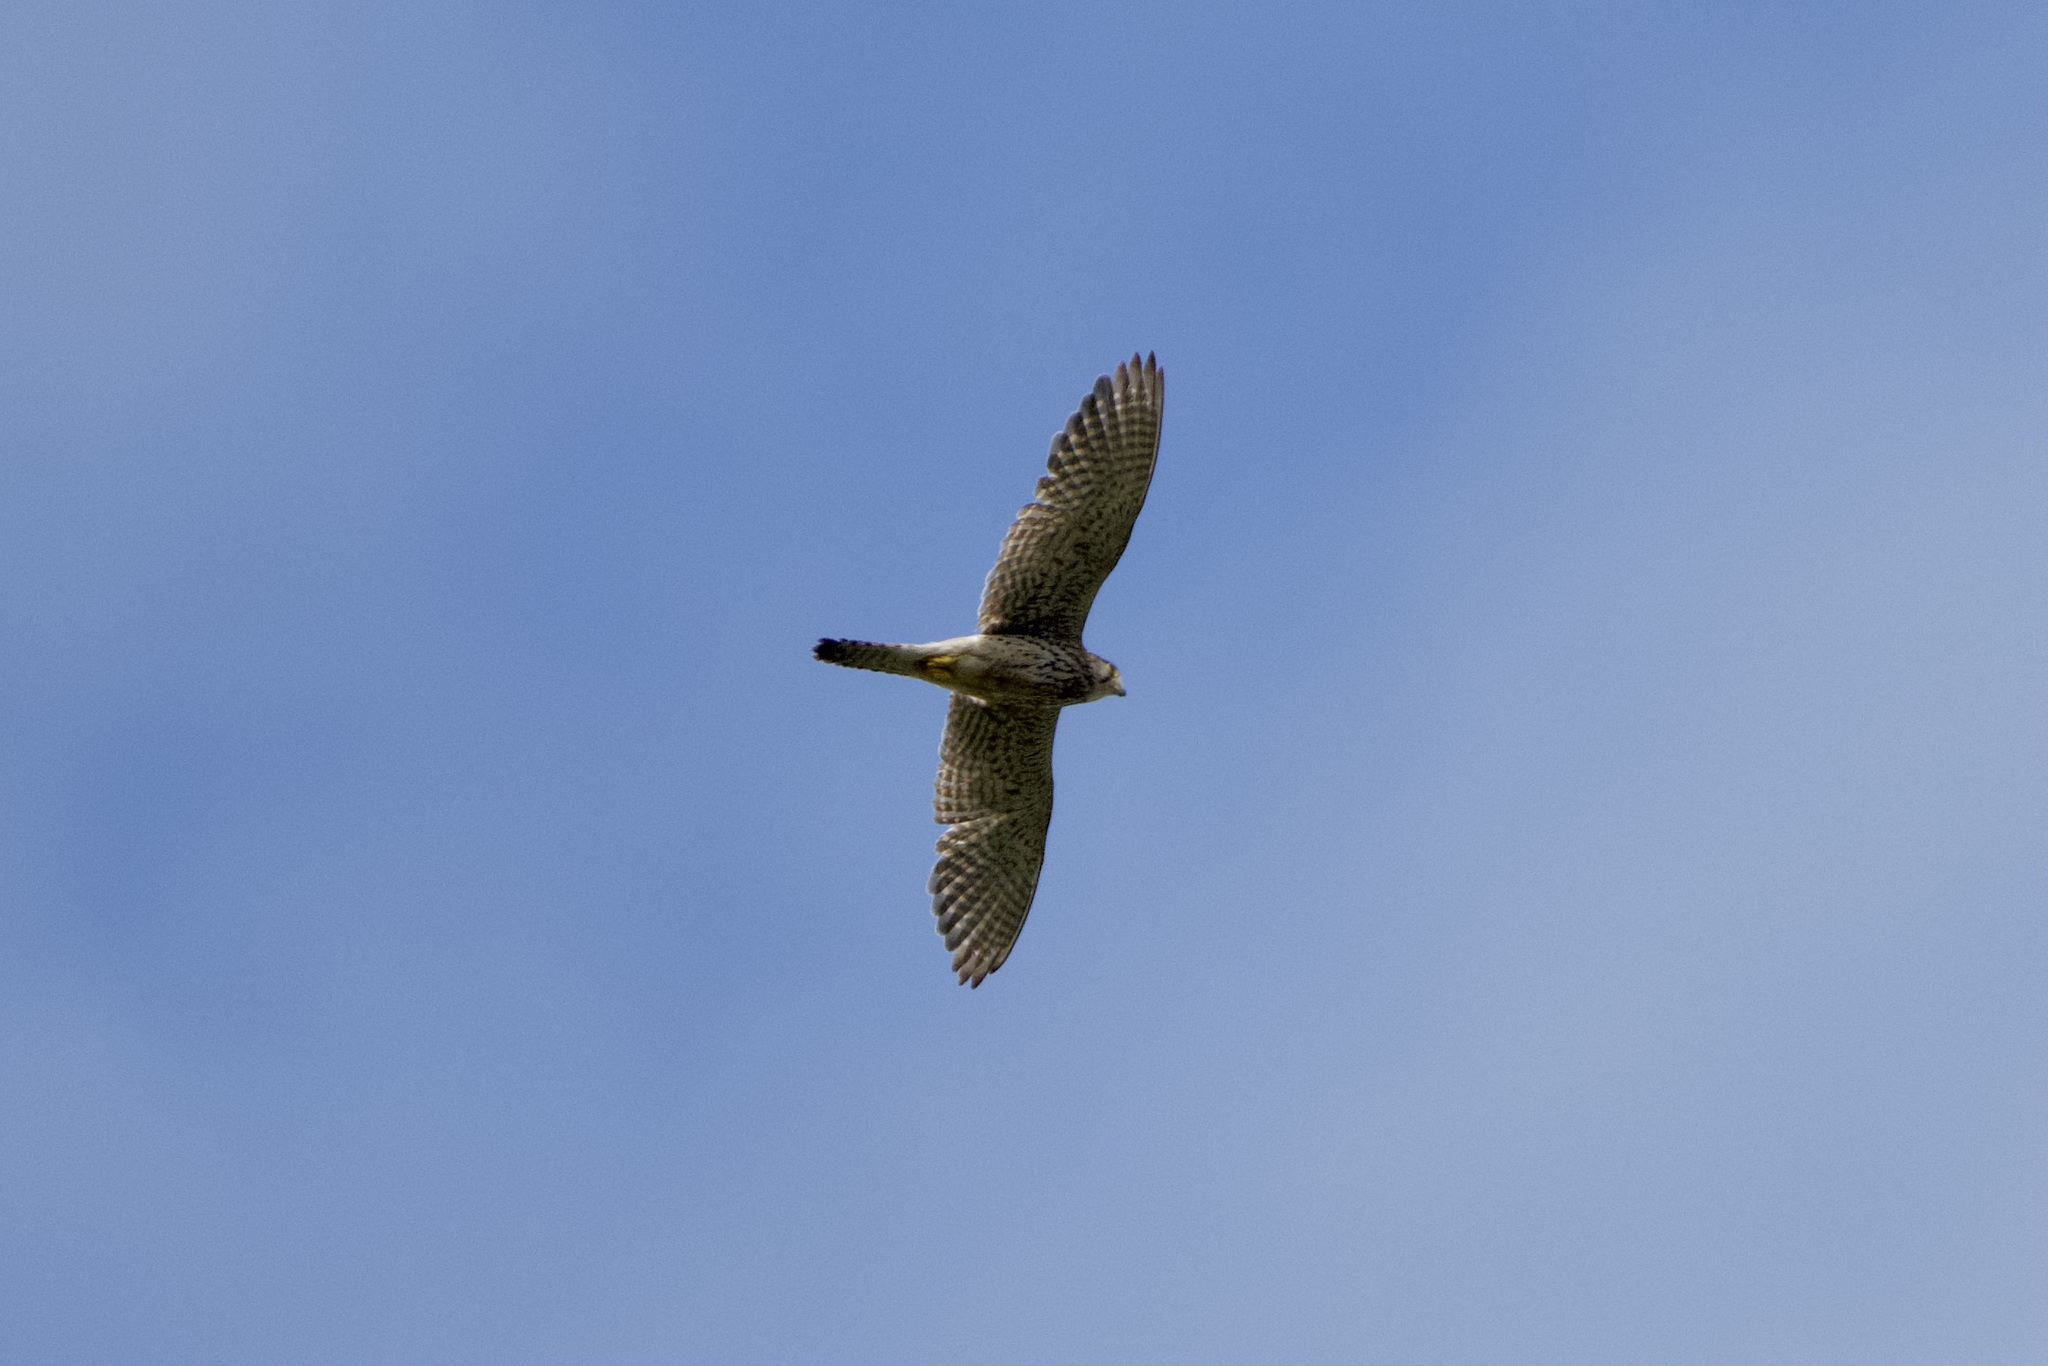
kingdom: Animalia
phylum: Chordata
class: Aves
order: Falconiformes
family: Falconidae
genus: Falco
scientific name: Falco tinnunculus
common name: Common kestrel
